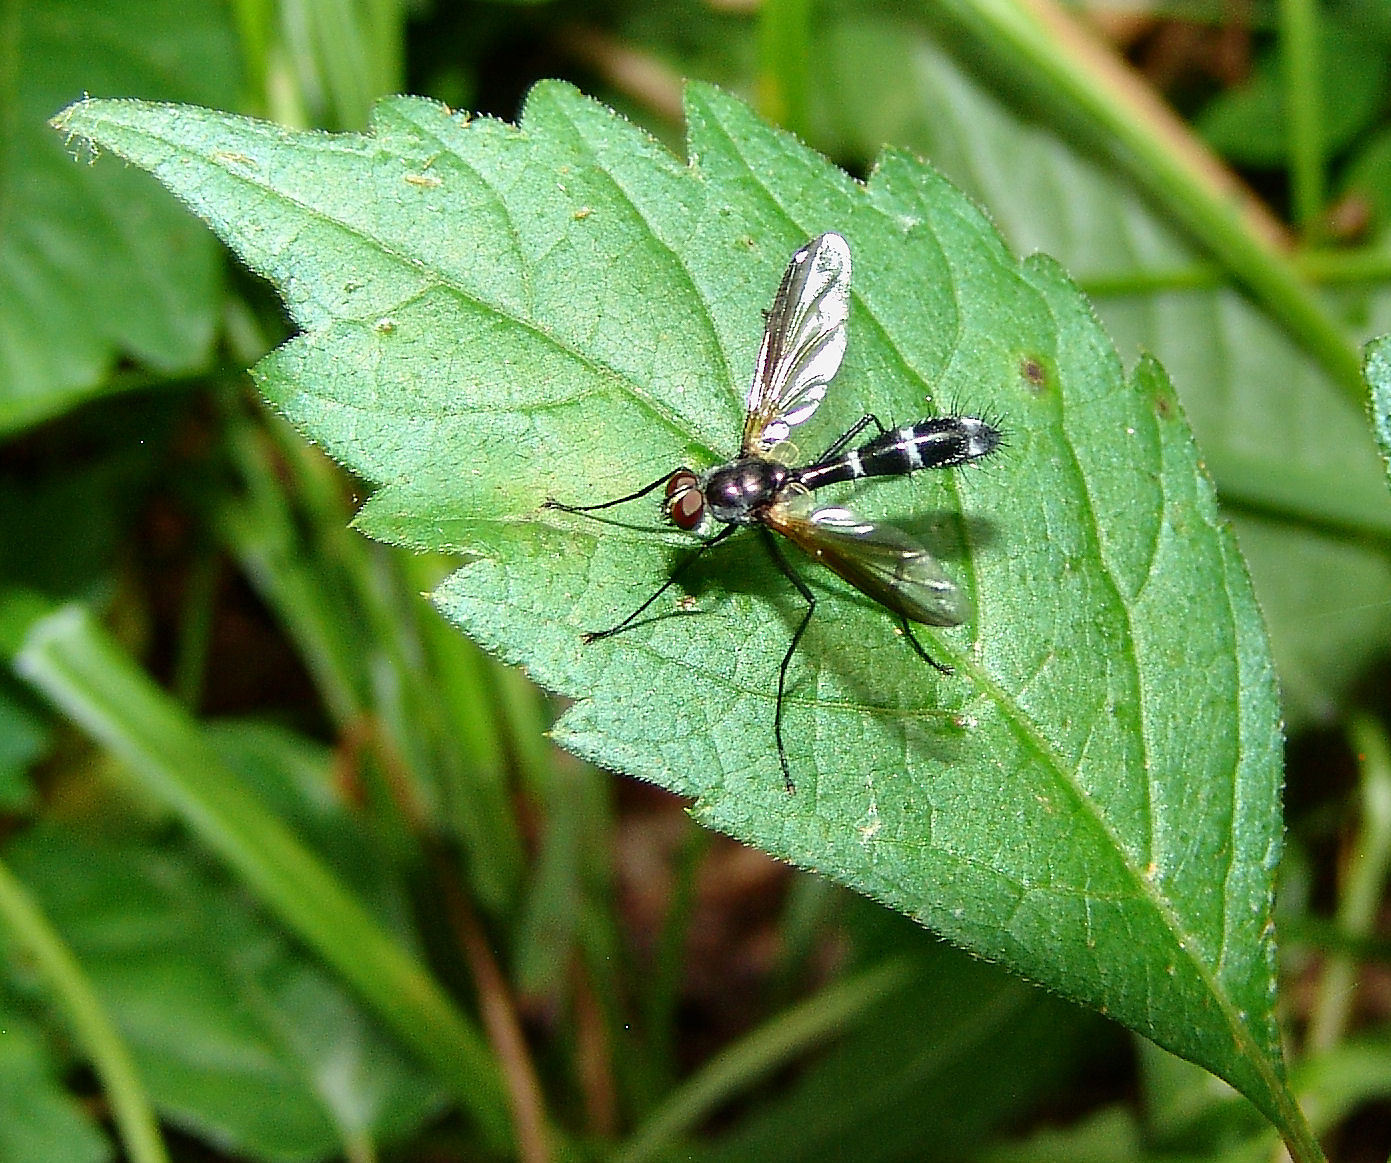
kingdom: Animalia
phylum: Arthropoda
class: Insecta
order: Diptera
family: Tachinidae
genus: Cordyligaster
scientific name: Cordyligaster septentrionalis
